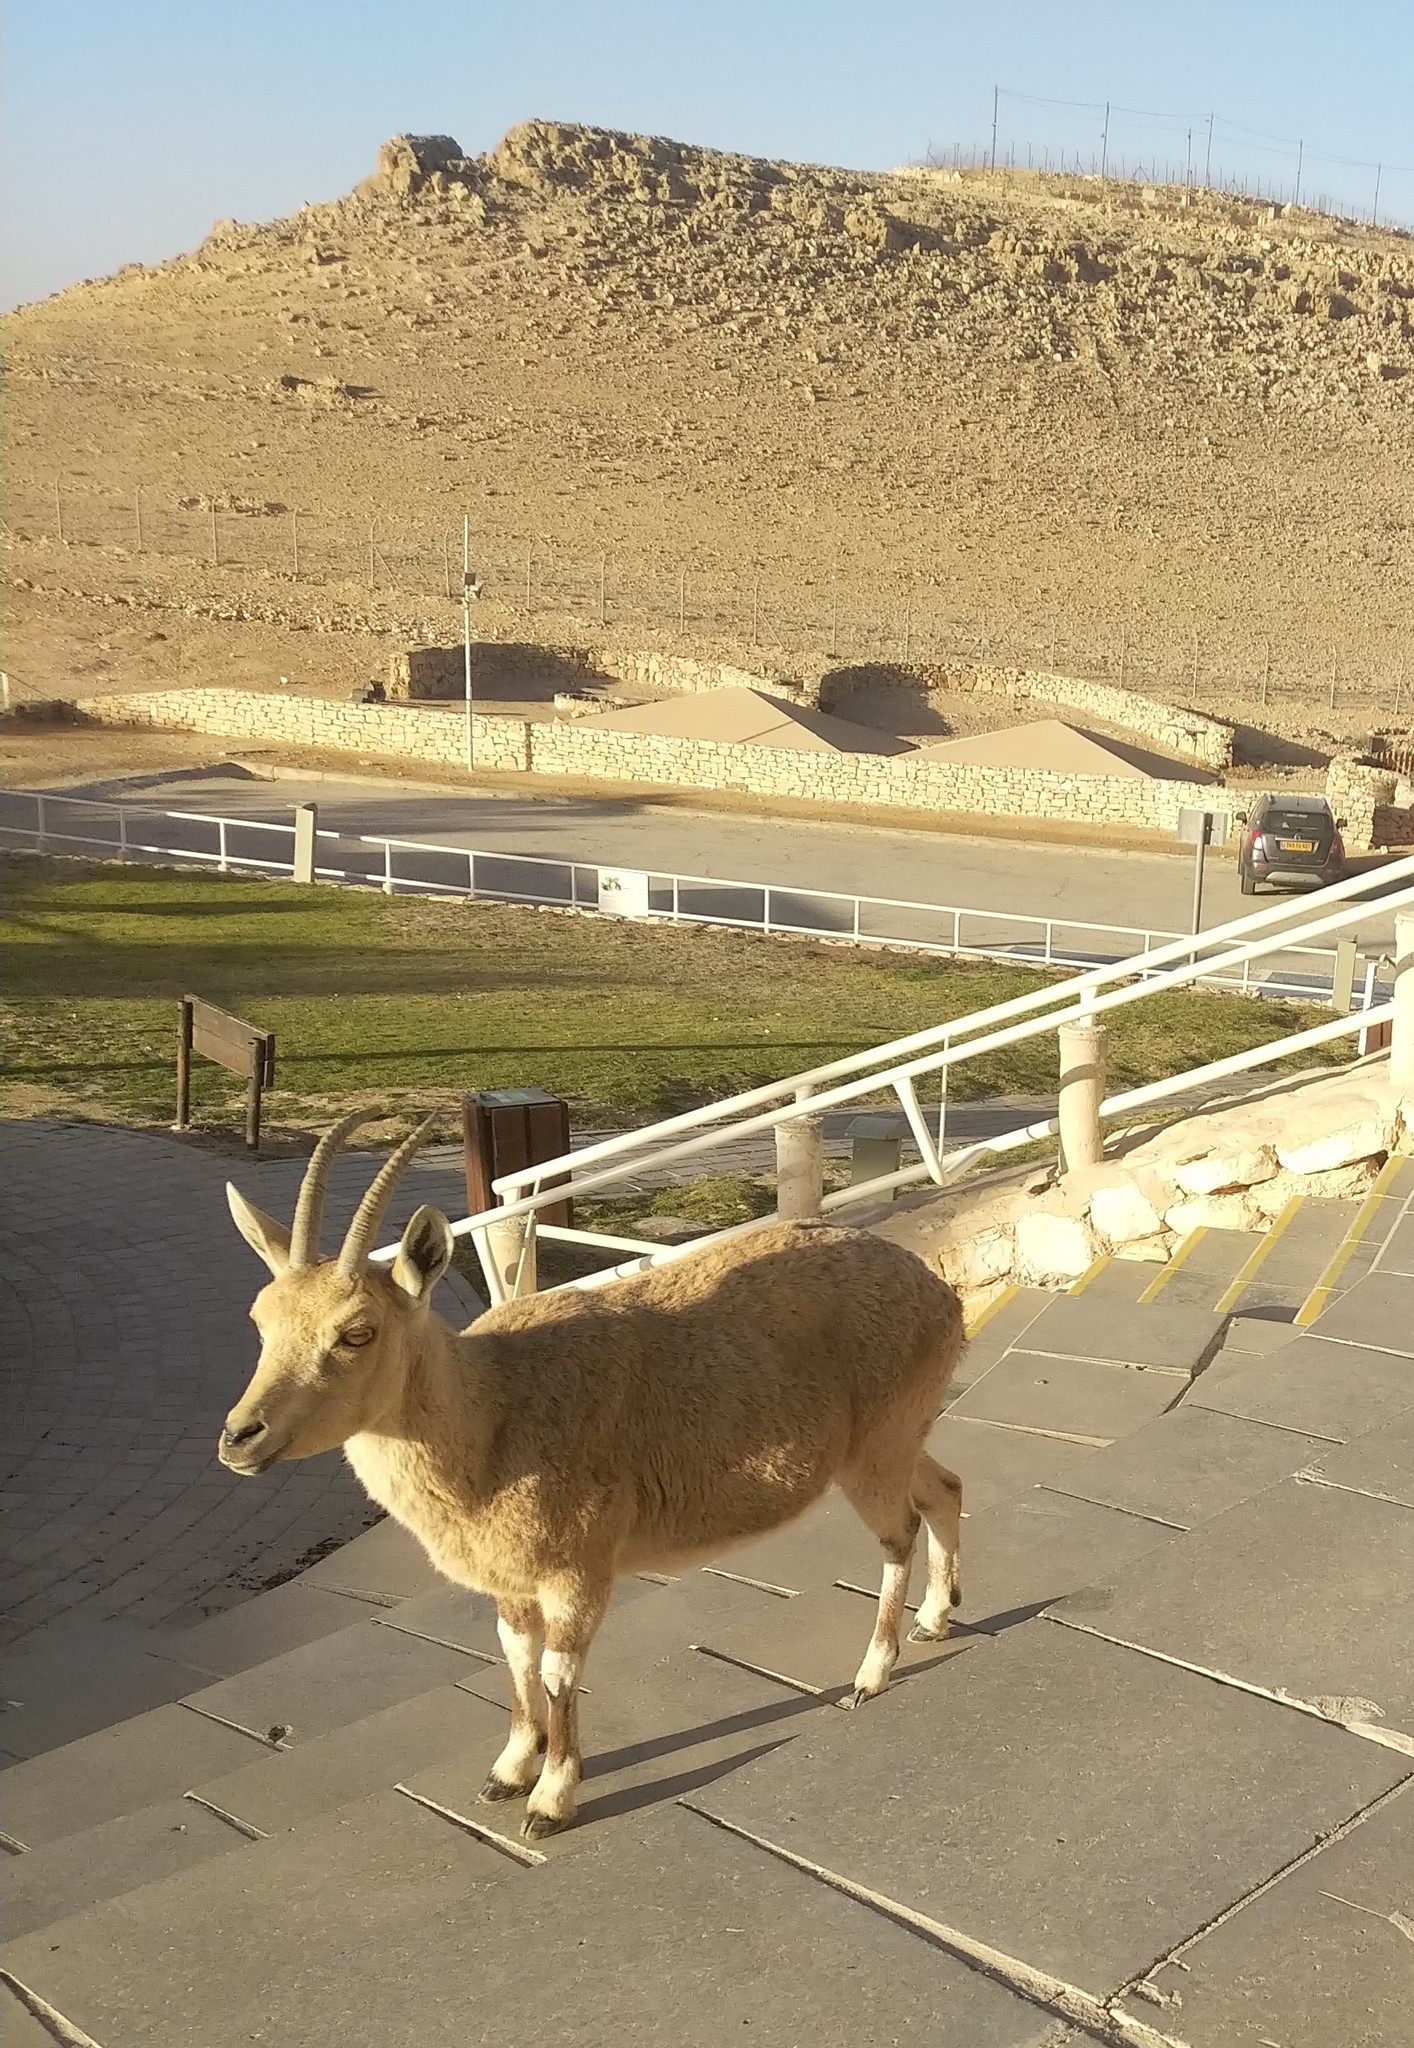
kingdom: Animalia
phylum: Chordata
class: Mammalia
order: Artiodactyla
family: Bovidae
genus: Capra
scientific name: Capra nubiana
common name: Nubian ibex
